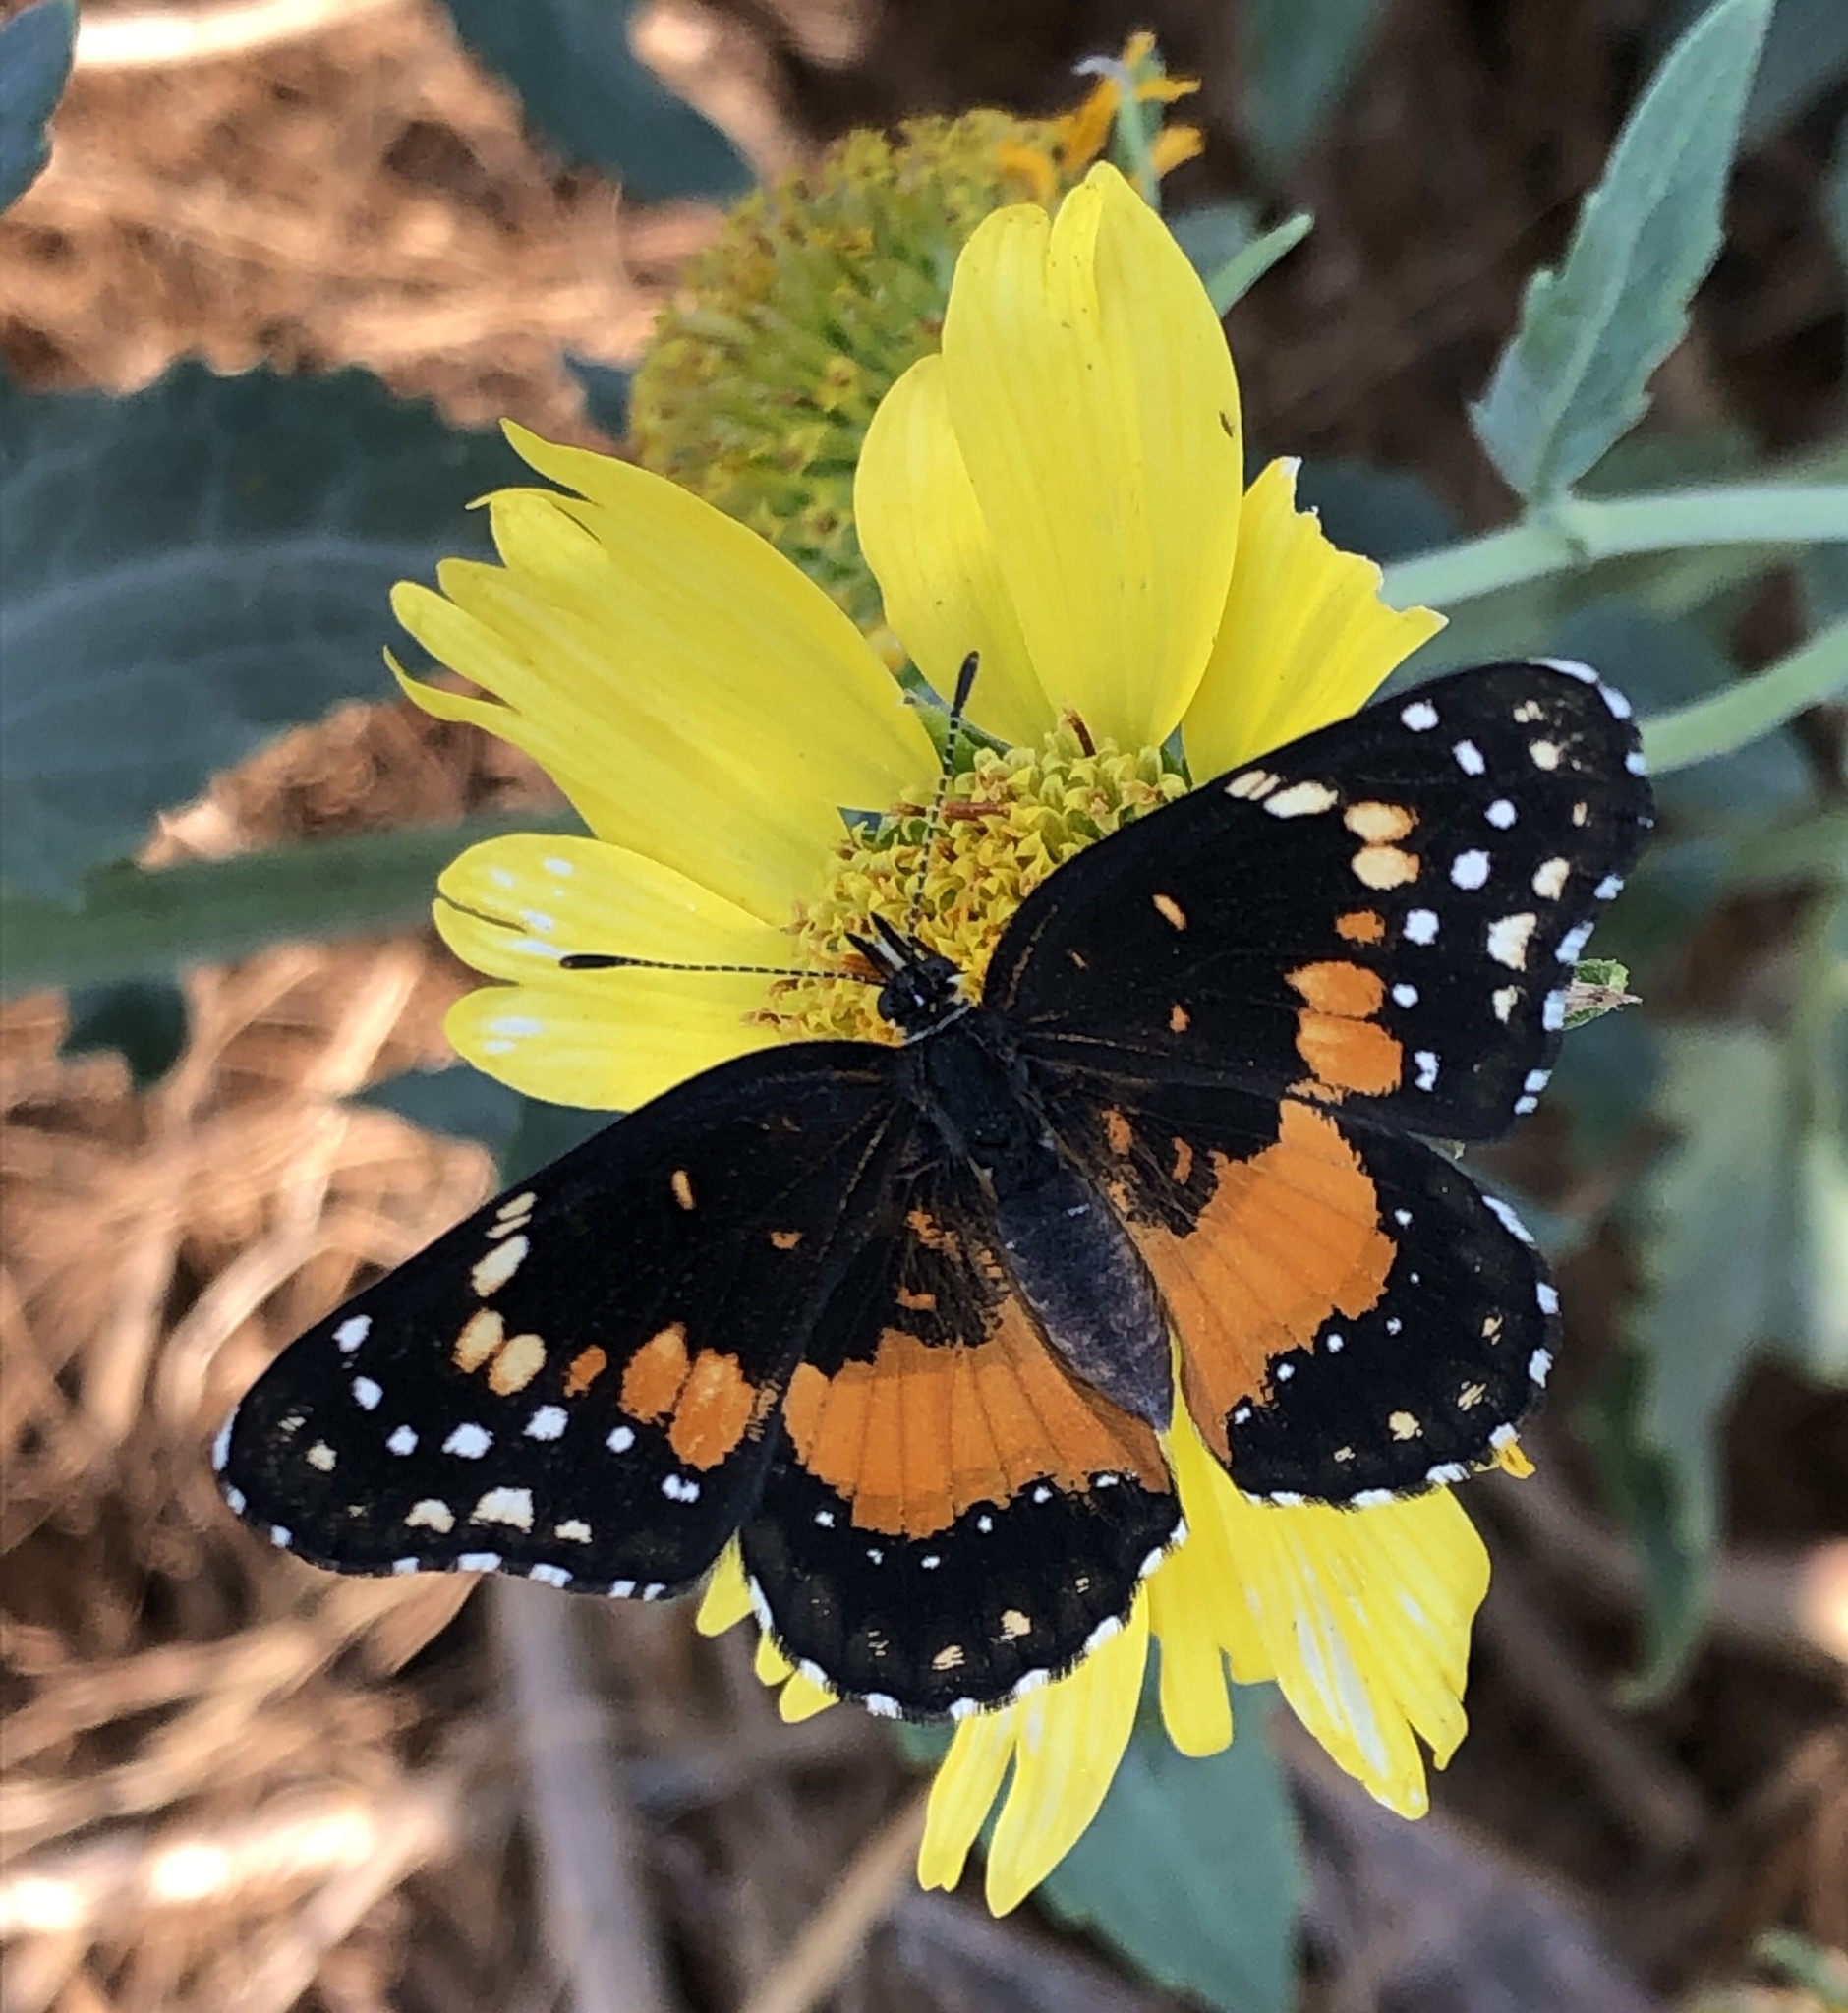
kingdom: Animalia
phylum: Arthropoda
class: Insecta
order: Lepidoptera
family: Nymphalidae
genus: Chlosyne
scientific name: Chlosyne lacinia
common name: Bordered patch
